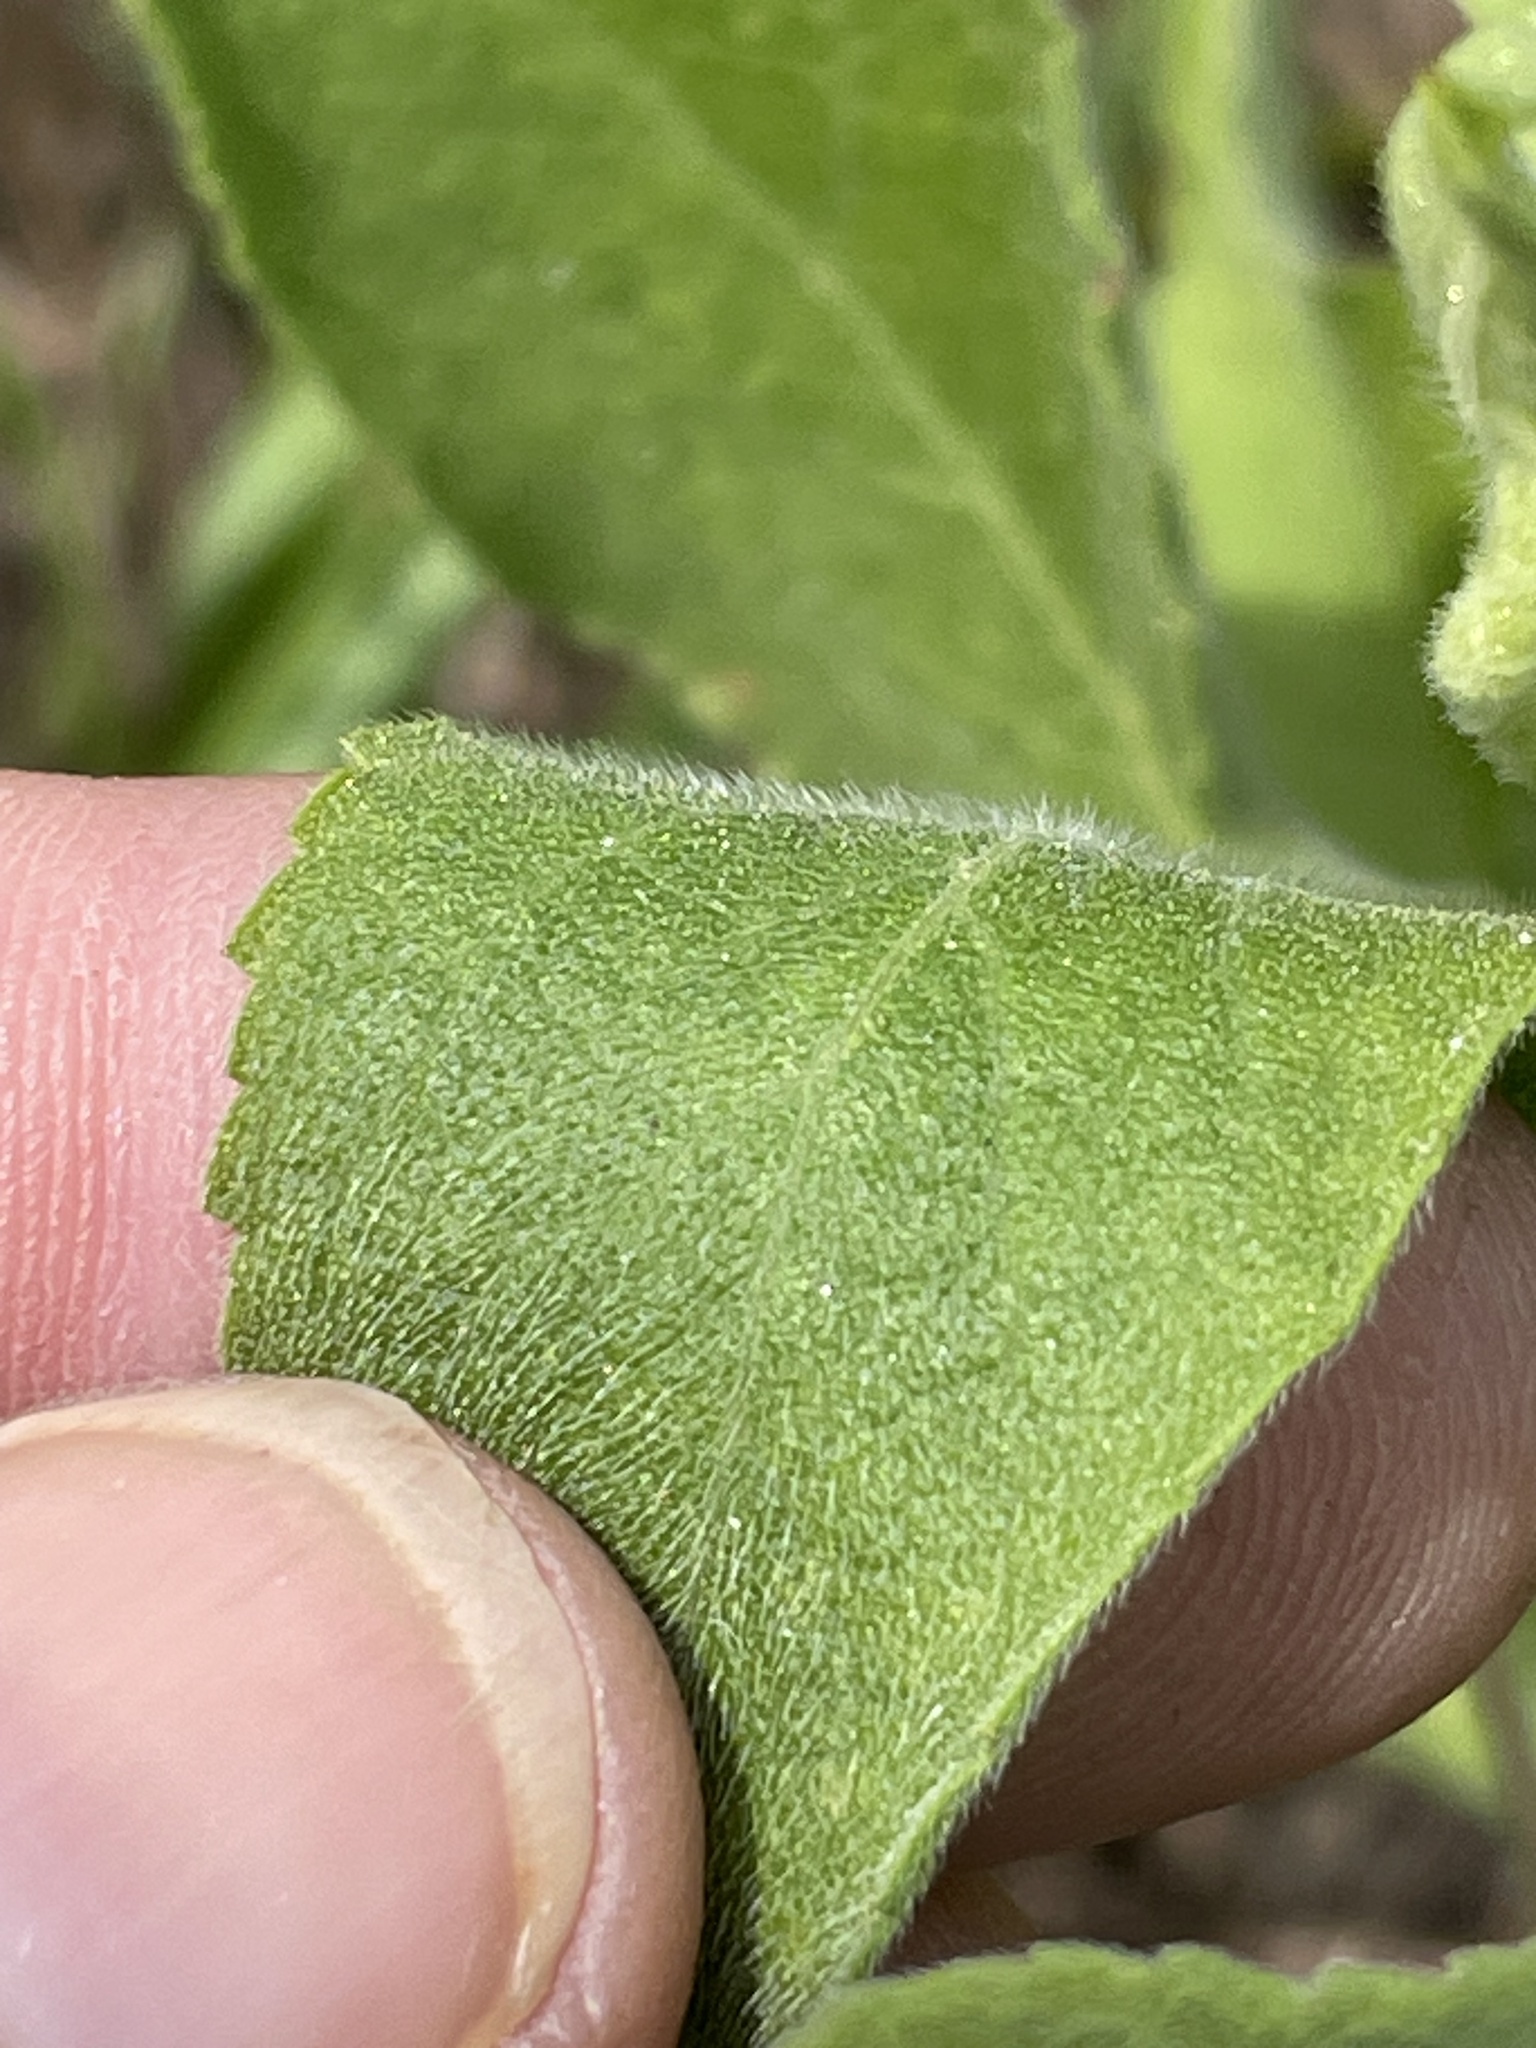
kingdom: Plantae
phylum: Tracheophyta
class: Magnoliopsida
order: Asterales
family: Asteraceae
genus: Heterotheca
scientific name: Heterotheca subaxillaris
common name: Camphorweed
